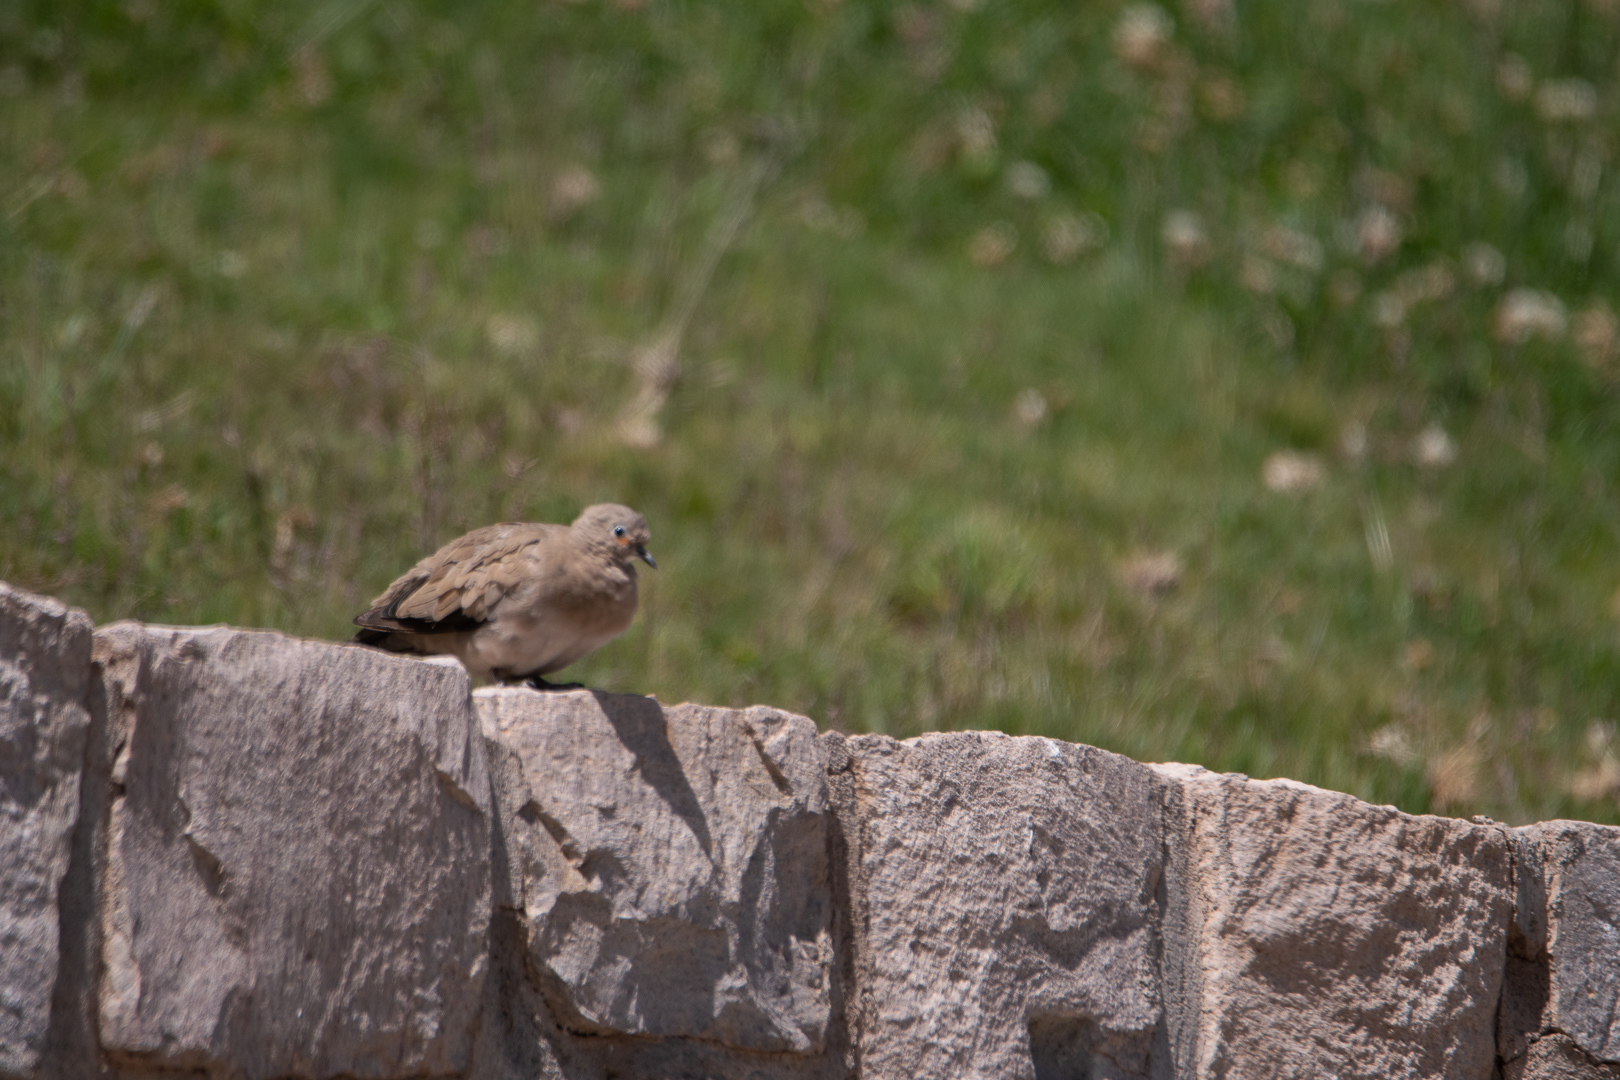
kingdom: Animalia
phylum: Chordata
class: Aves
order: Columbiformes
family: Columbidae
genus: Metriopelia
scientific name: Metriopelia melanoptera
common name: Black-winged ground dove
